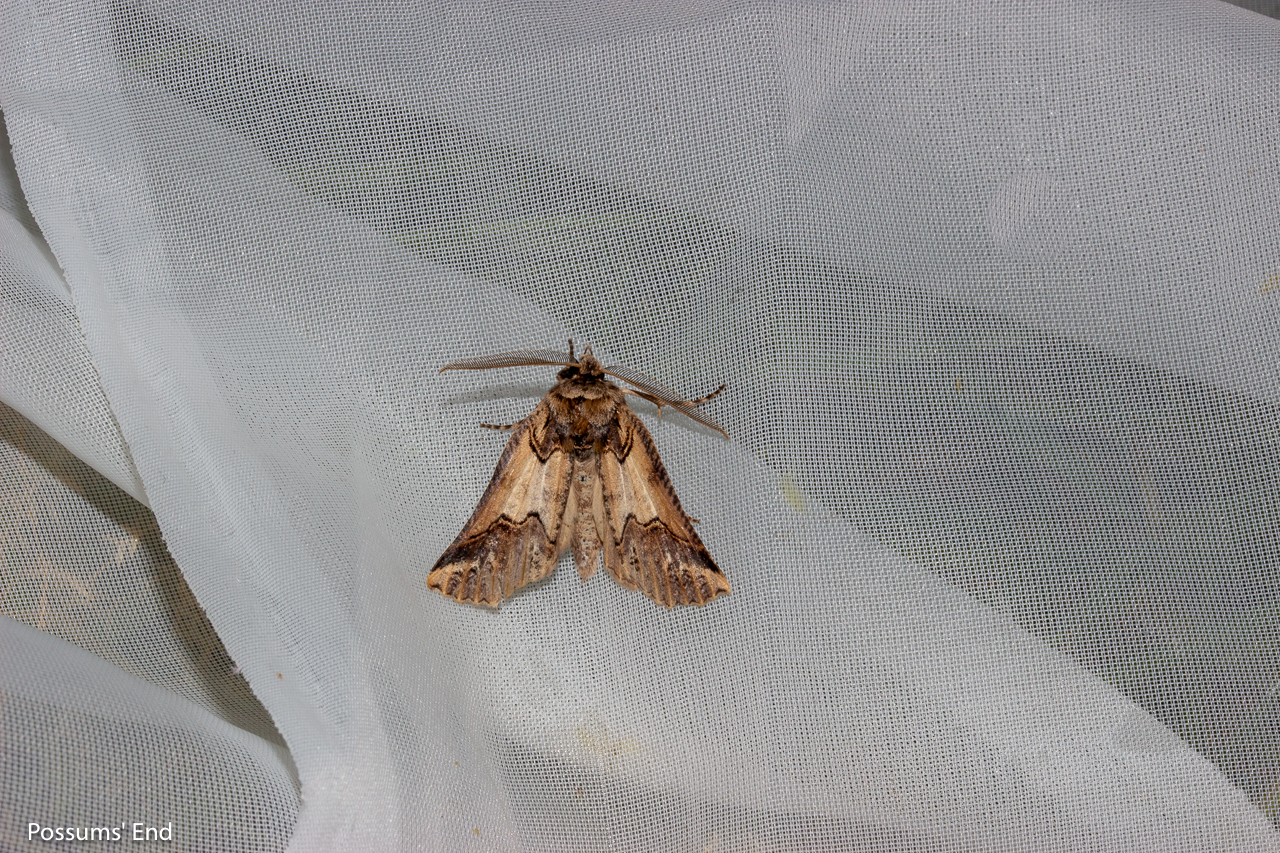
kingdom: Animalia
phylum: Arthropoda
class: Insecta
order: Lepidoptera
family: Geometridae
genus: Declana
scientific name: Declana
